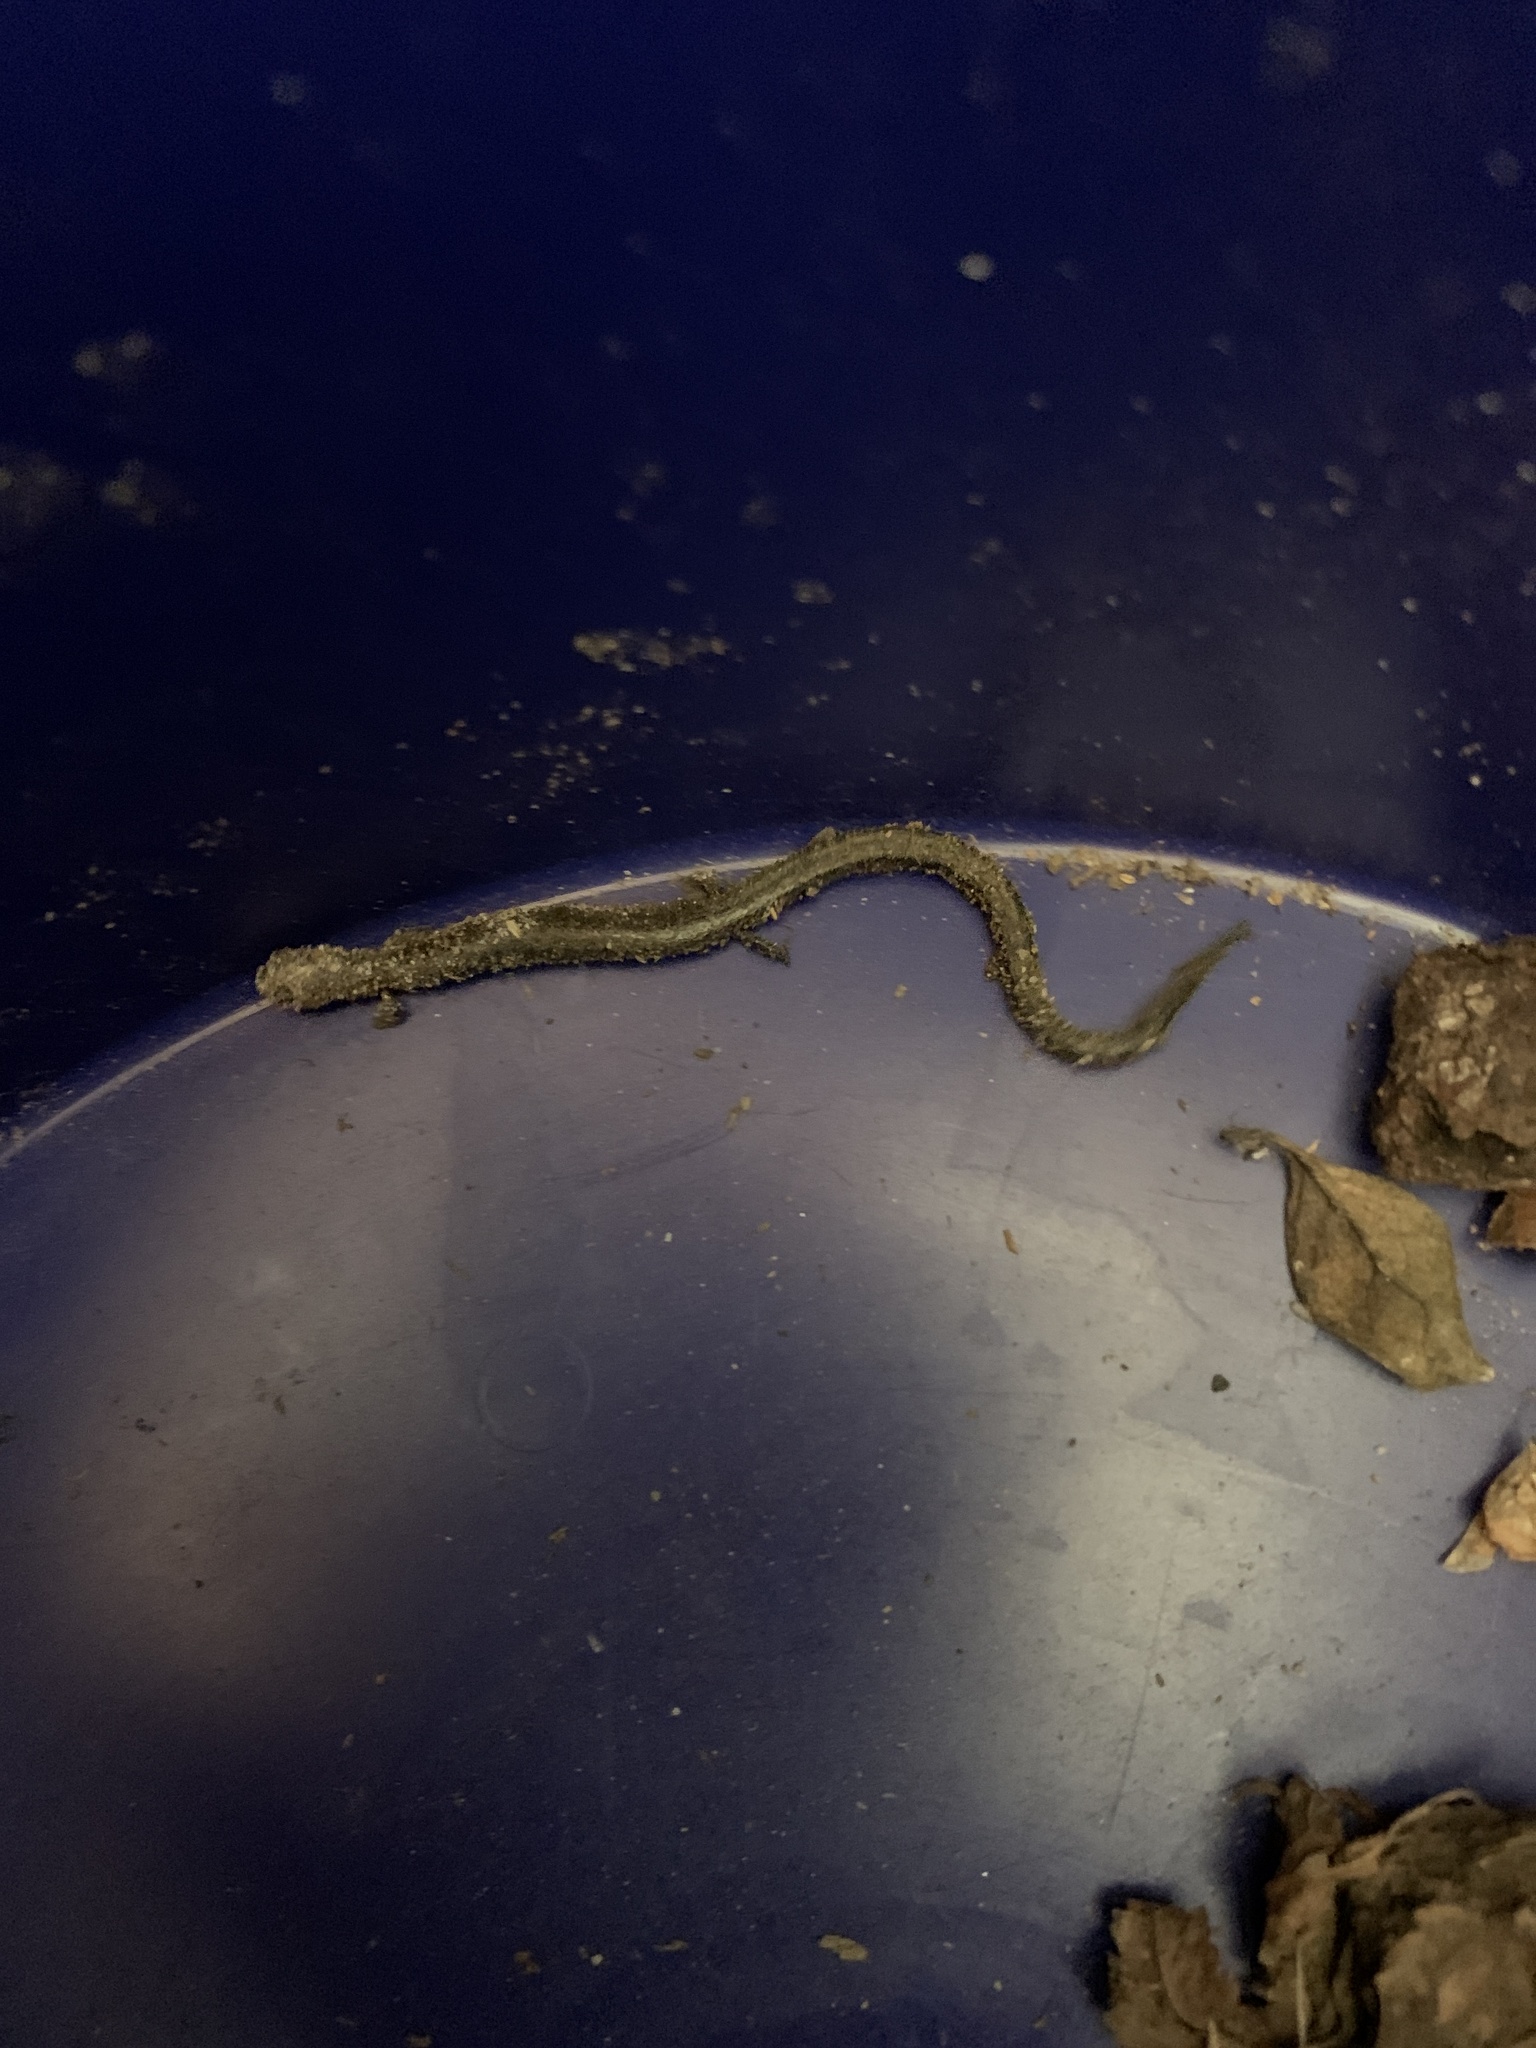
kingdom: Animalia
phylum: Chordata
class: Amphibia
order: Caudata
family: Plethodontidae
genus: Batrachoseps
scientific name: Batrachoseps attenuatus
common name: California slender salamander
